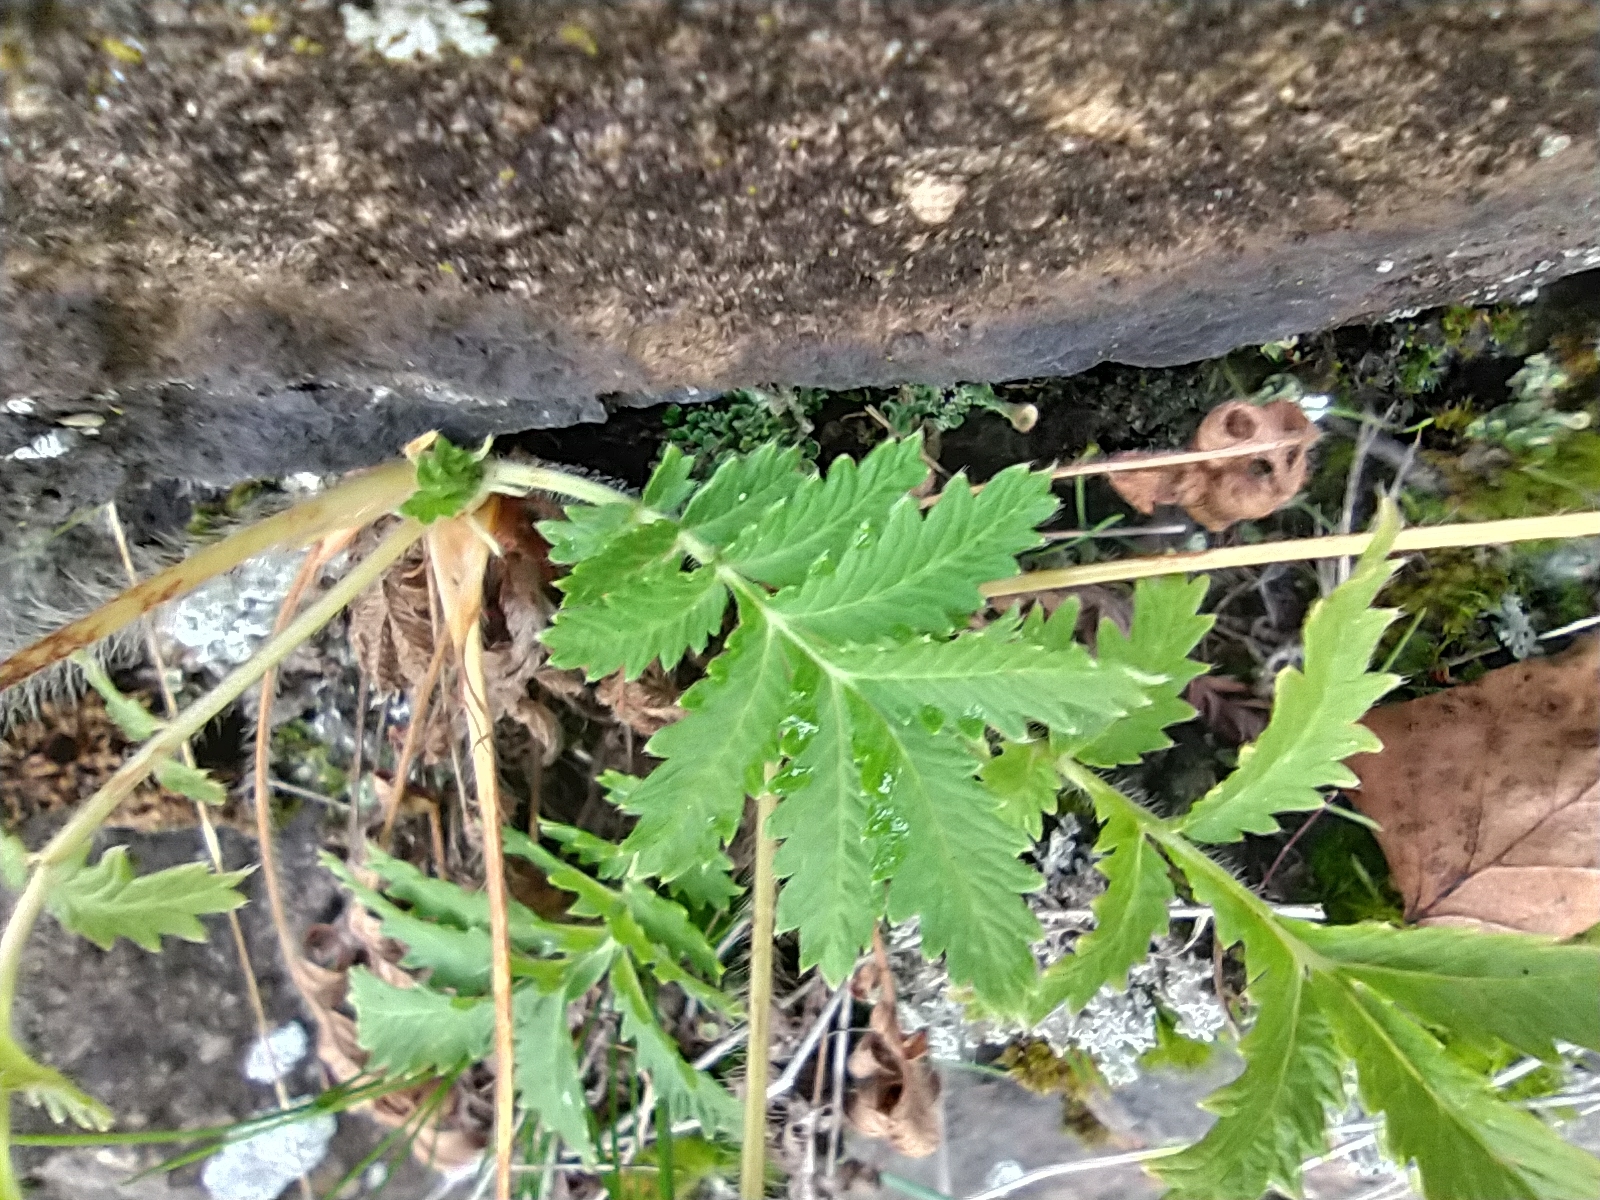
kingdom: Plantae
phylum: Tracheophyta
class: Magnoliopsida
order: Rosales
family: Rosaceae
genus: Potentilla
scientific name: Potentilla longifolia
